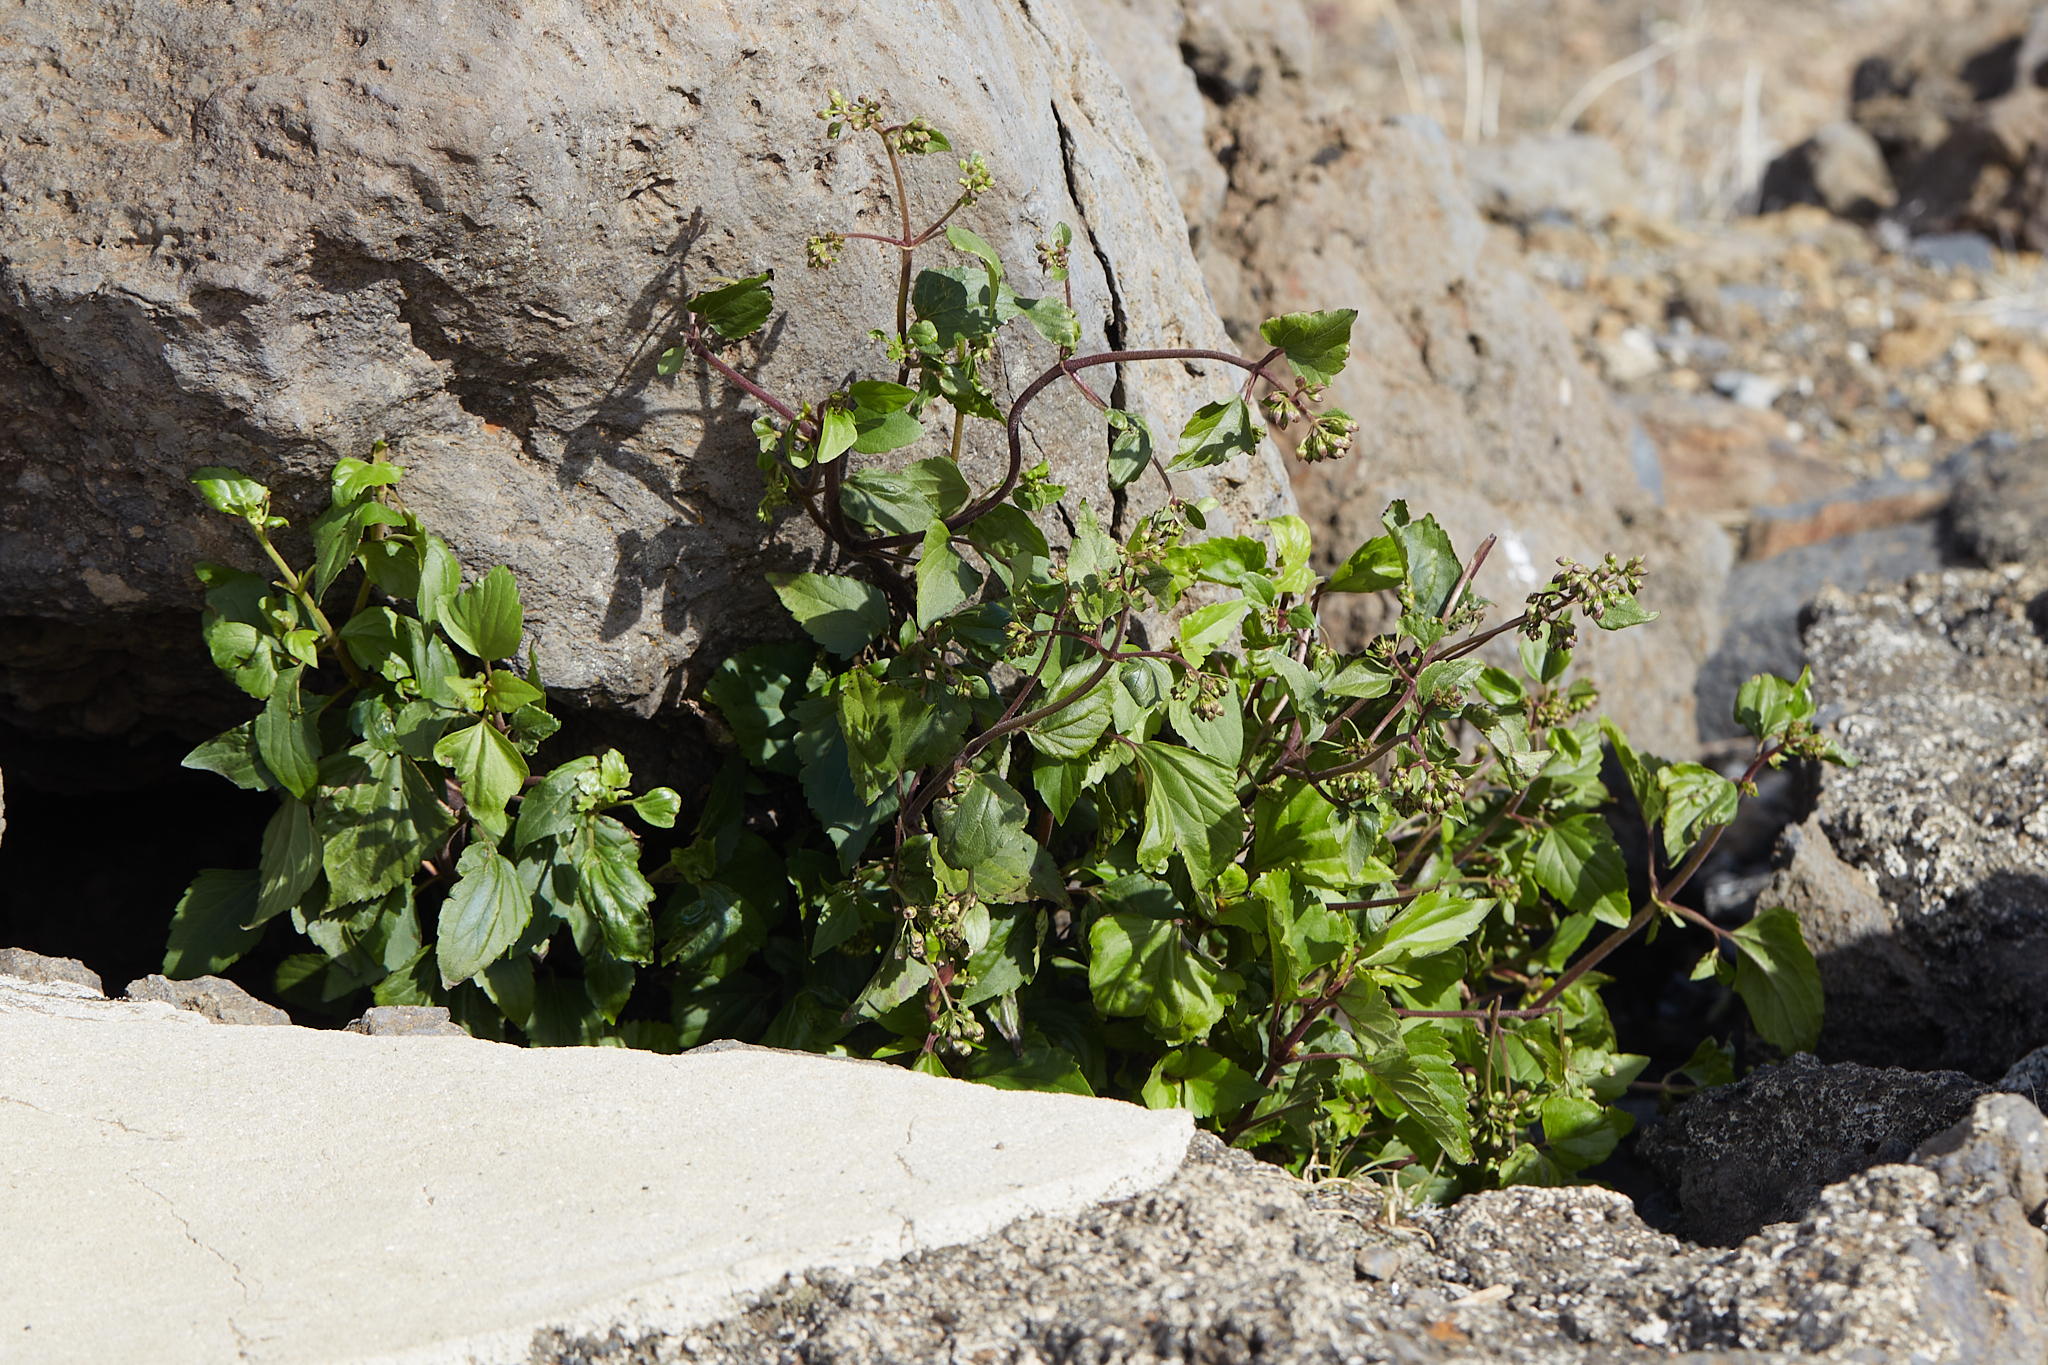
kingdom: Plantae
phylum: Tracheophyta
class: Magnoliopsida
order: Asterales
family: Asteraceae
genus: Ageratina
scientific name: Ageratina adenophora
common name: Sticky snakeroot
